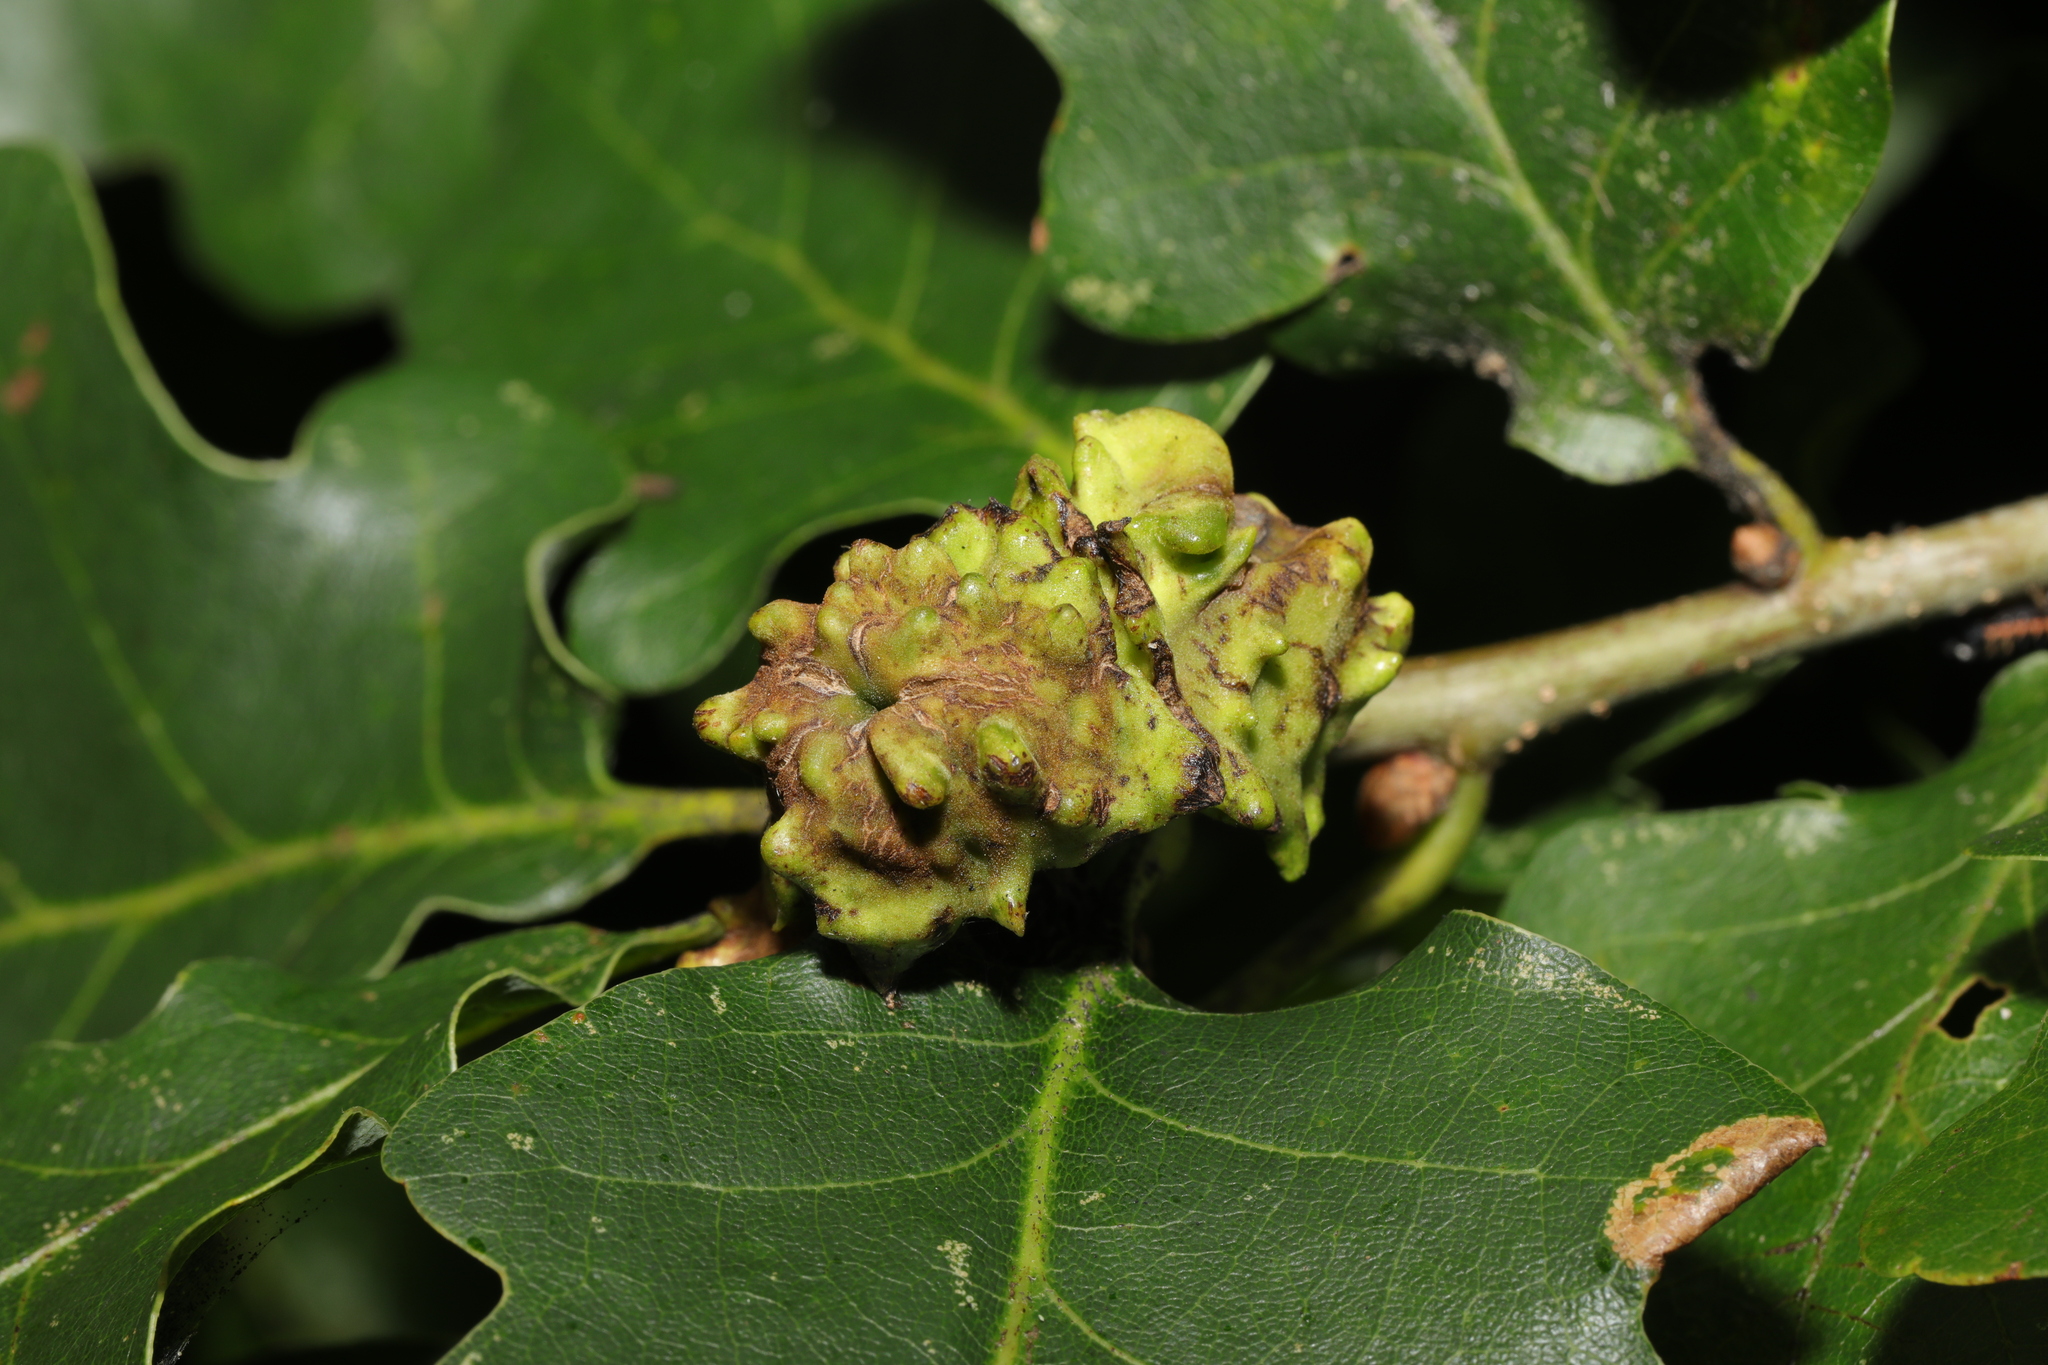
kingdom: Animalia
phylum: Arthropoda
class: Insecta
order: Hymenoptera
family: Cynipidae
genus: Andricus
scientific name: Andricus quercuscalicis
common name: Knopper gall
